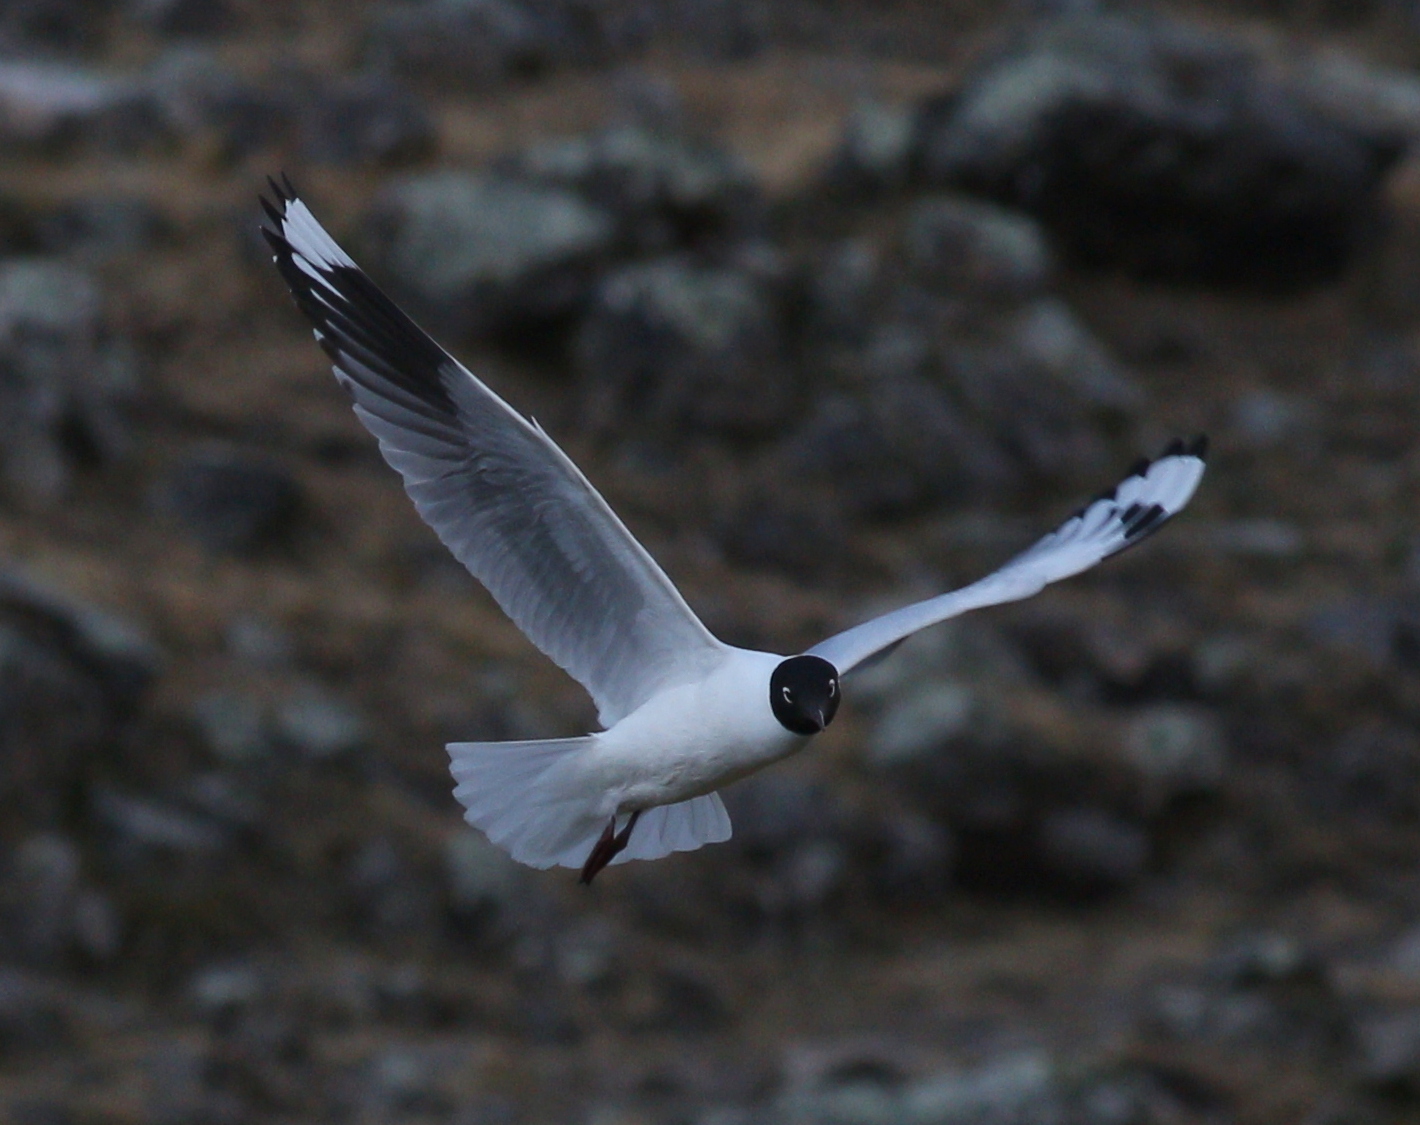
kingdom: Animalia
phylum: Chordata
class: Aves
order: Charadriiformes
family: Laridae
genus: Chroicocephalus
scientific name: Chroicocephalus serranus
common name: Andean gull
